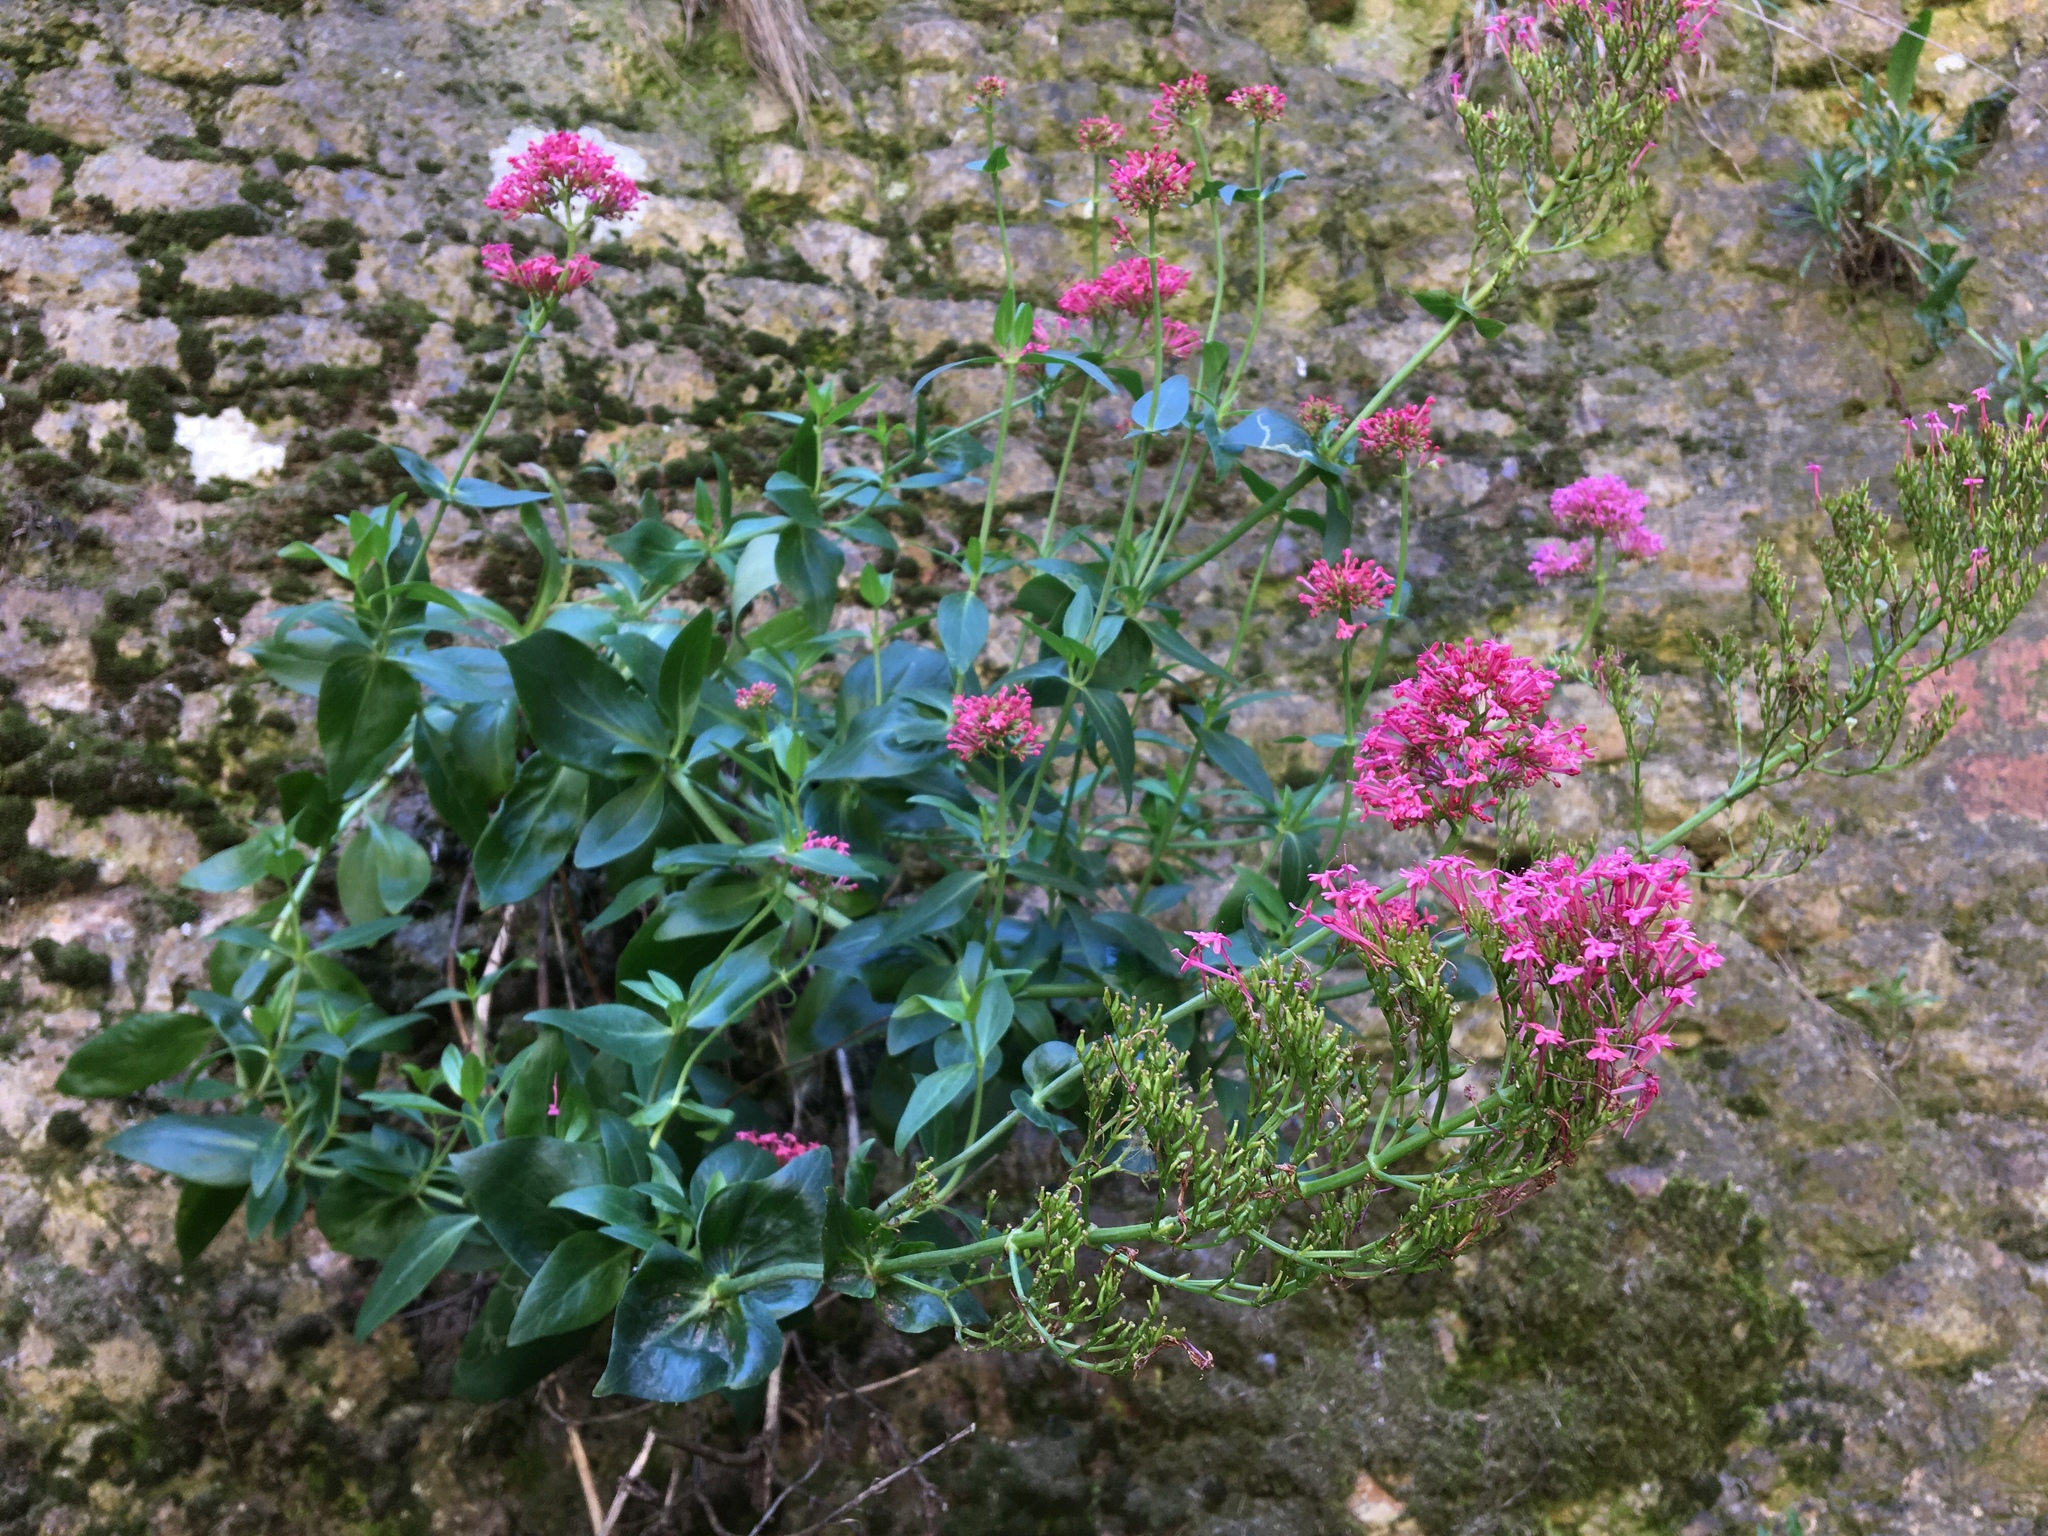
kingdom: Plantae
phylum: Tracheophyta
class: Magnoliopsida
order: Dipsacales
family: Caprifoliaceae
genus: Centranthus
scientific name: Centranthus ruber
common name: Red valerian
